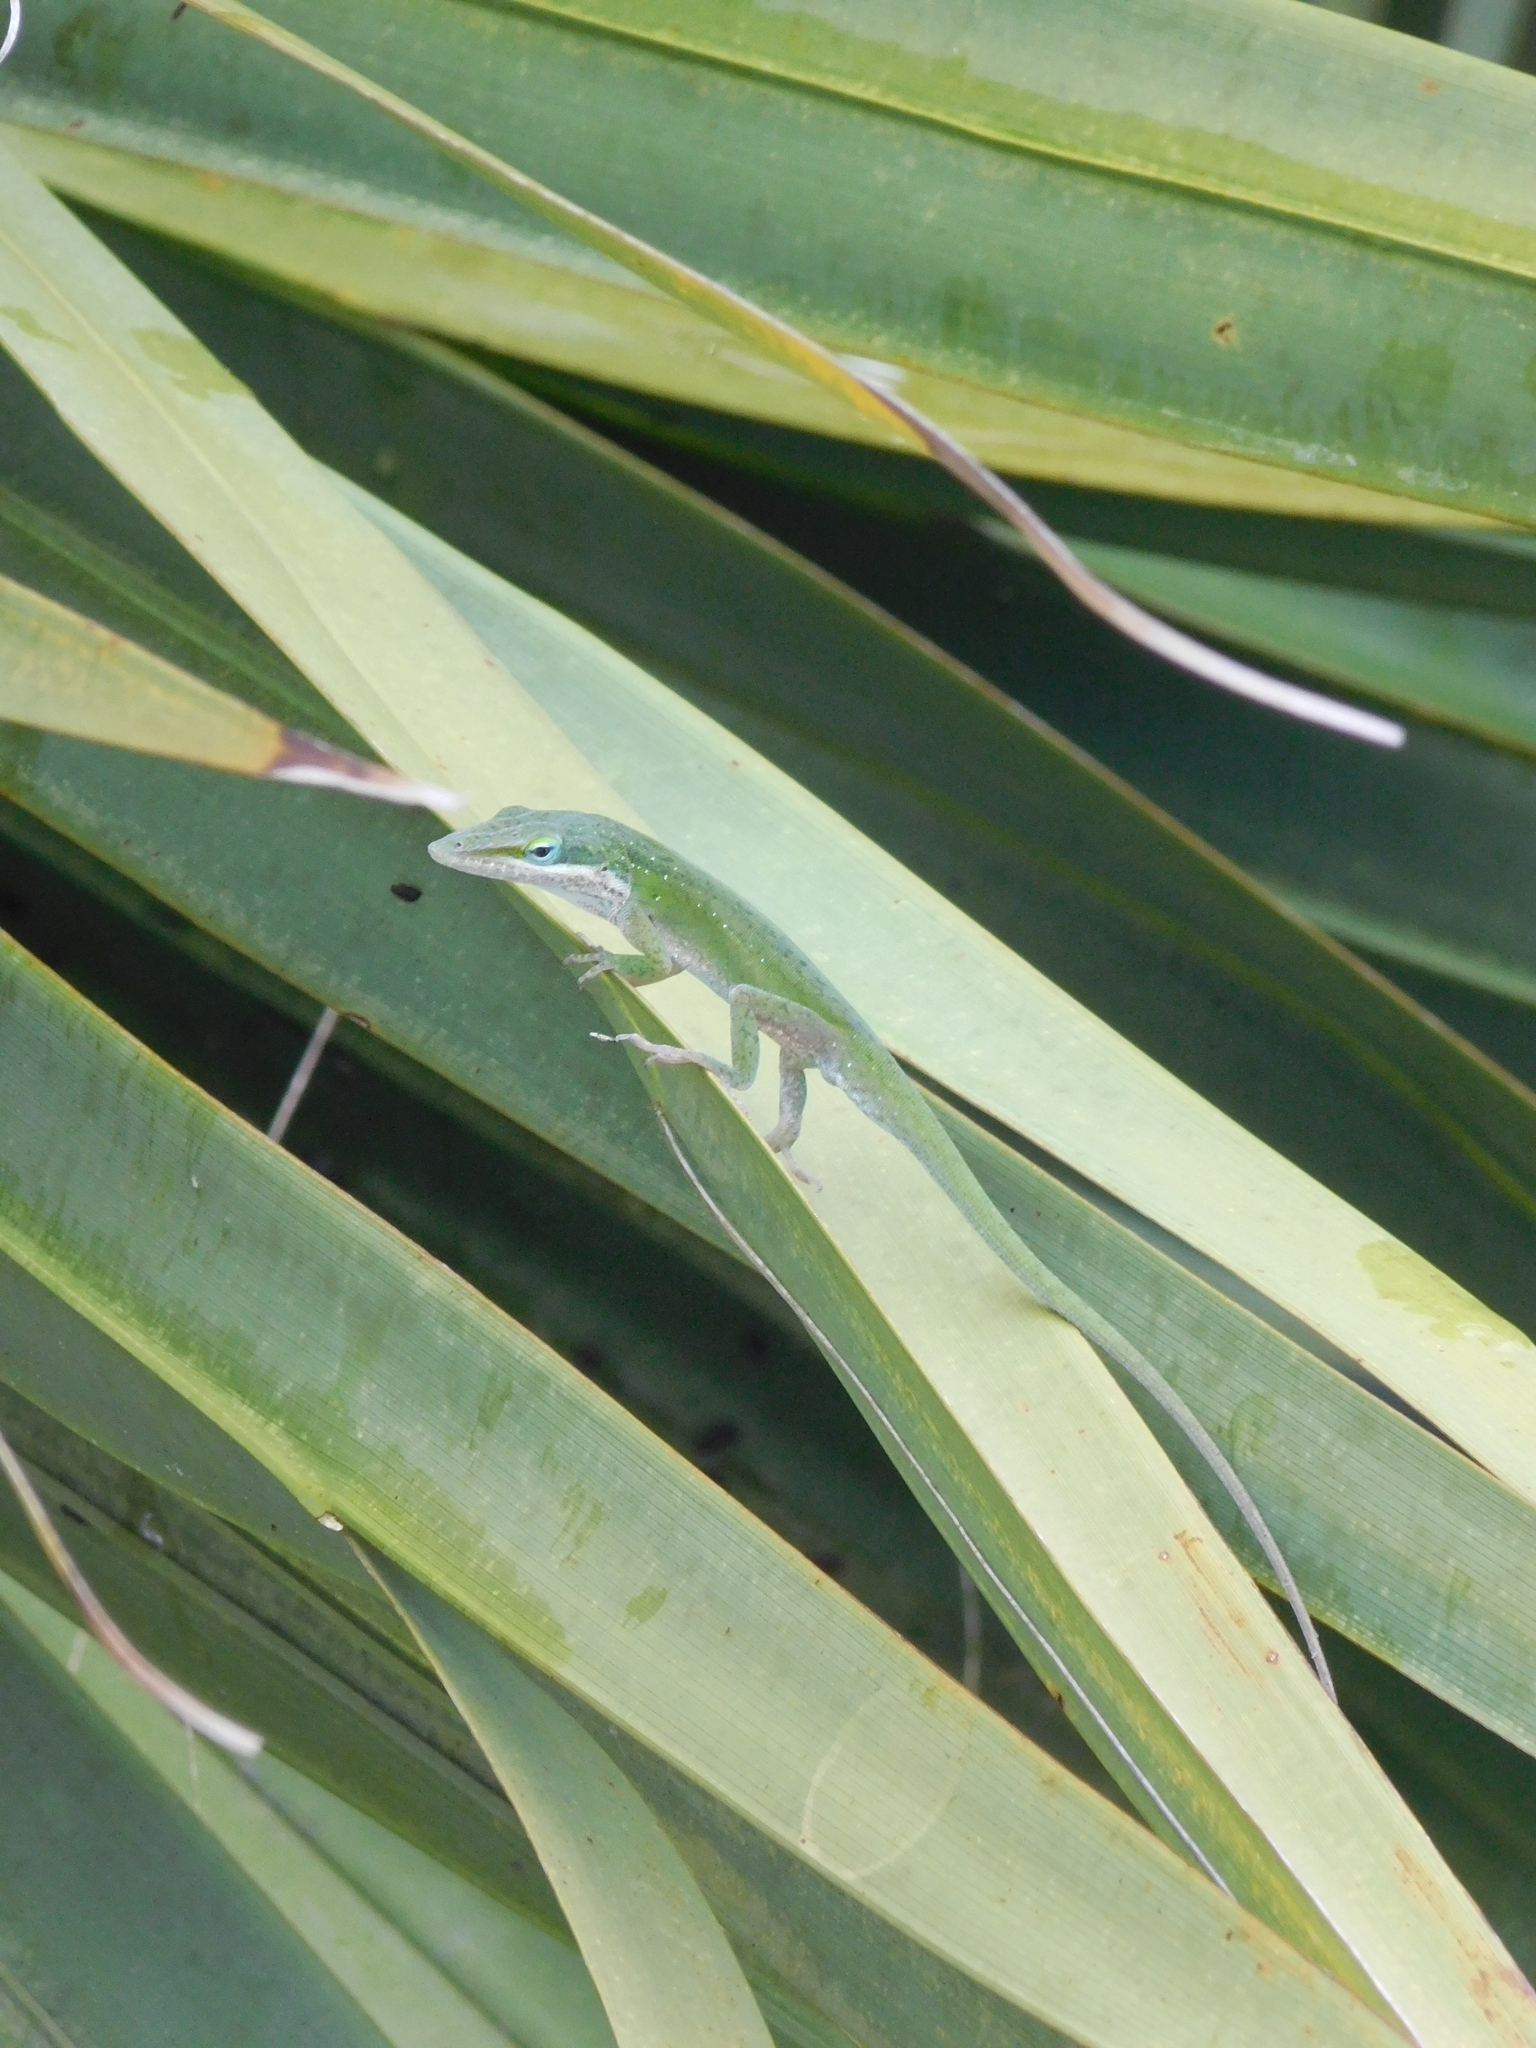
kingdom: Animalia
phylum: Chordata
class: Squamata
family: Dactyloidae
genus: Anolis
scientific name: Anolis carolinensis
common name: Green anole
